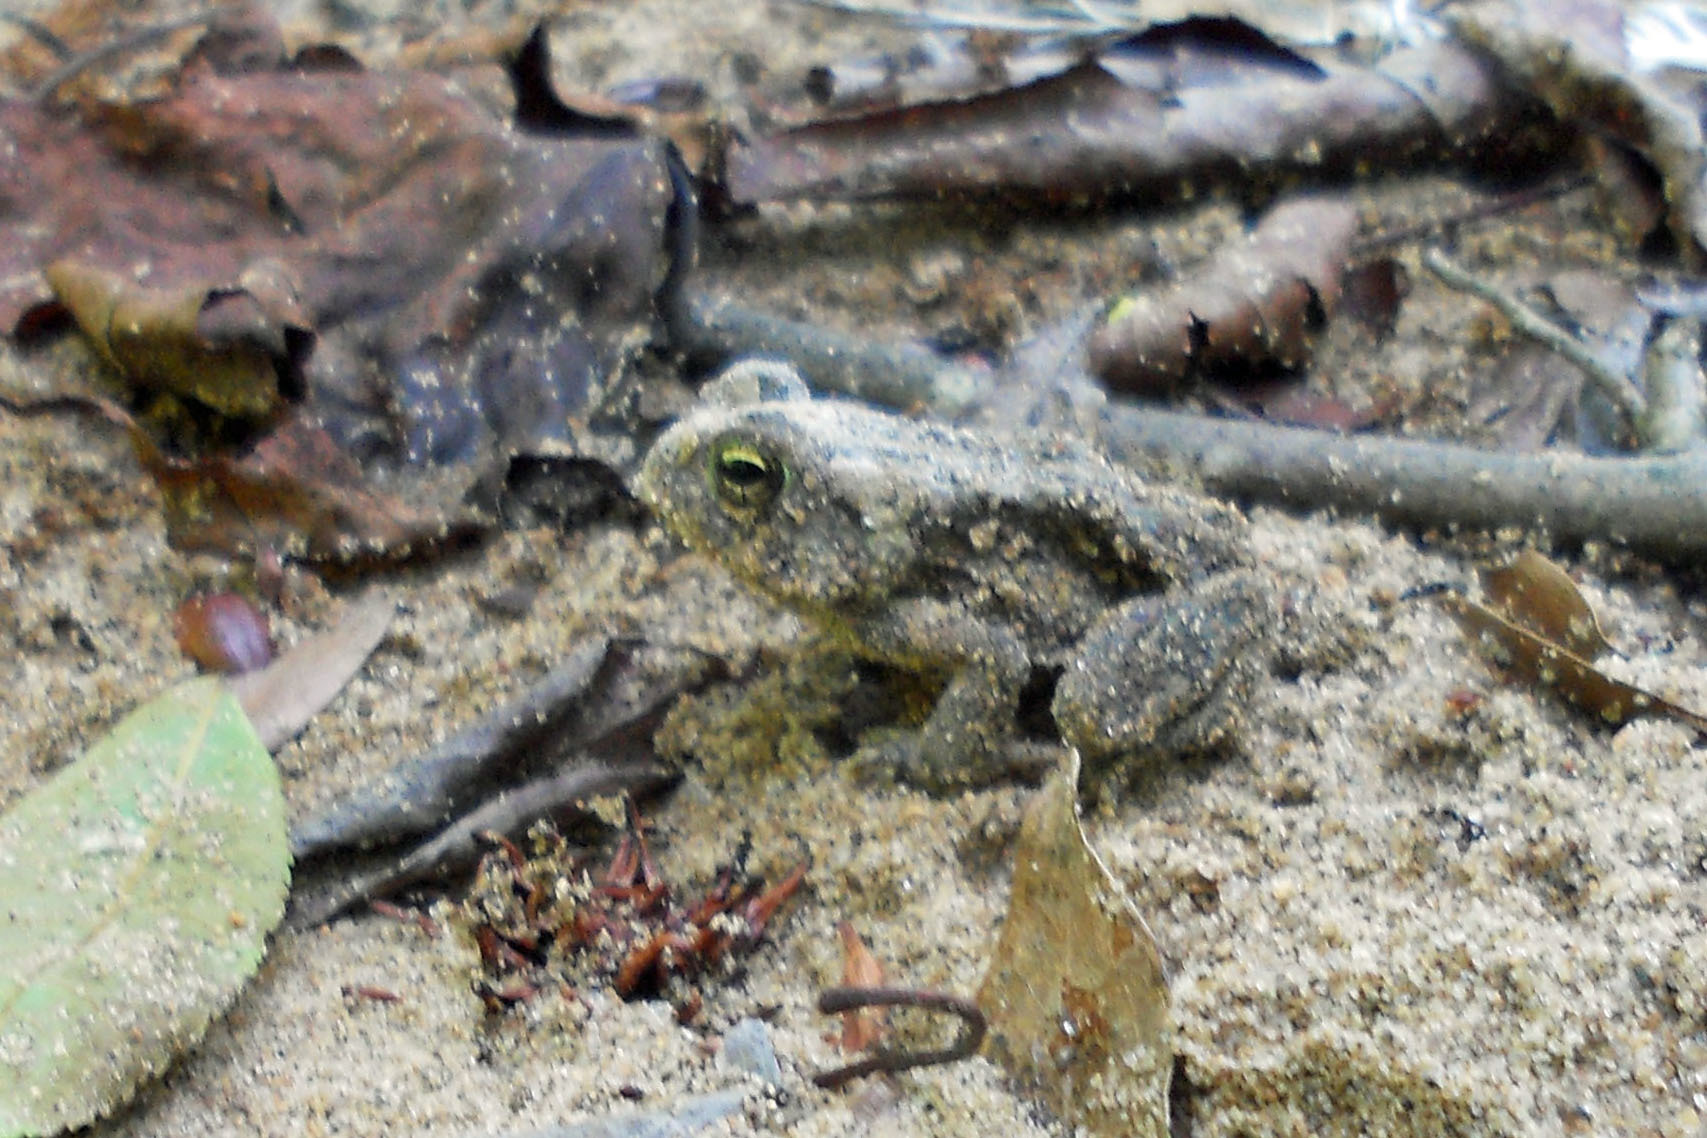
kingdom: Animalia
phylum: Chordata
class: Amphibia
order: Anura
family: Bufonidae
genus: Anaxyrus
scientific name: Anaxyrus fowleri
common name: Fowler's toad
